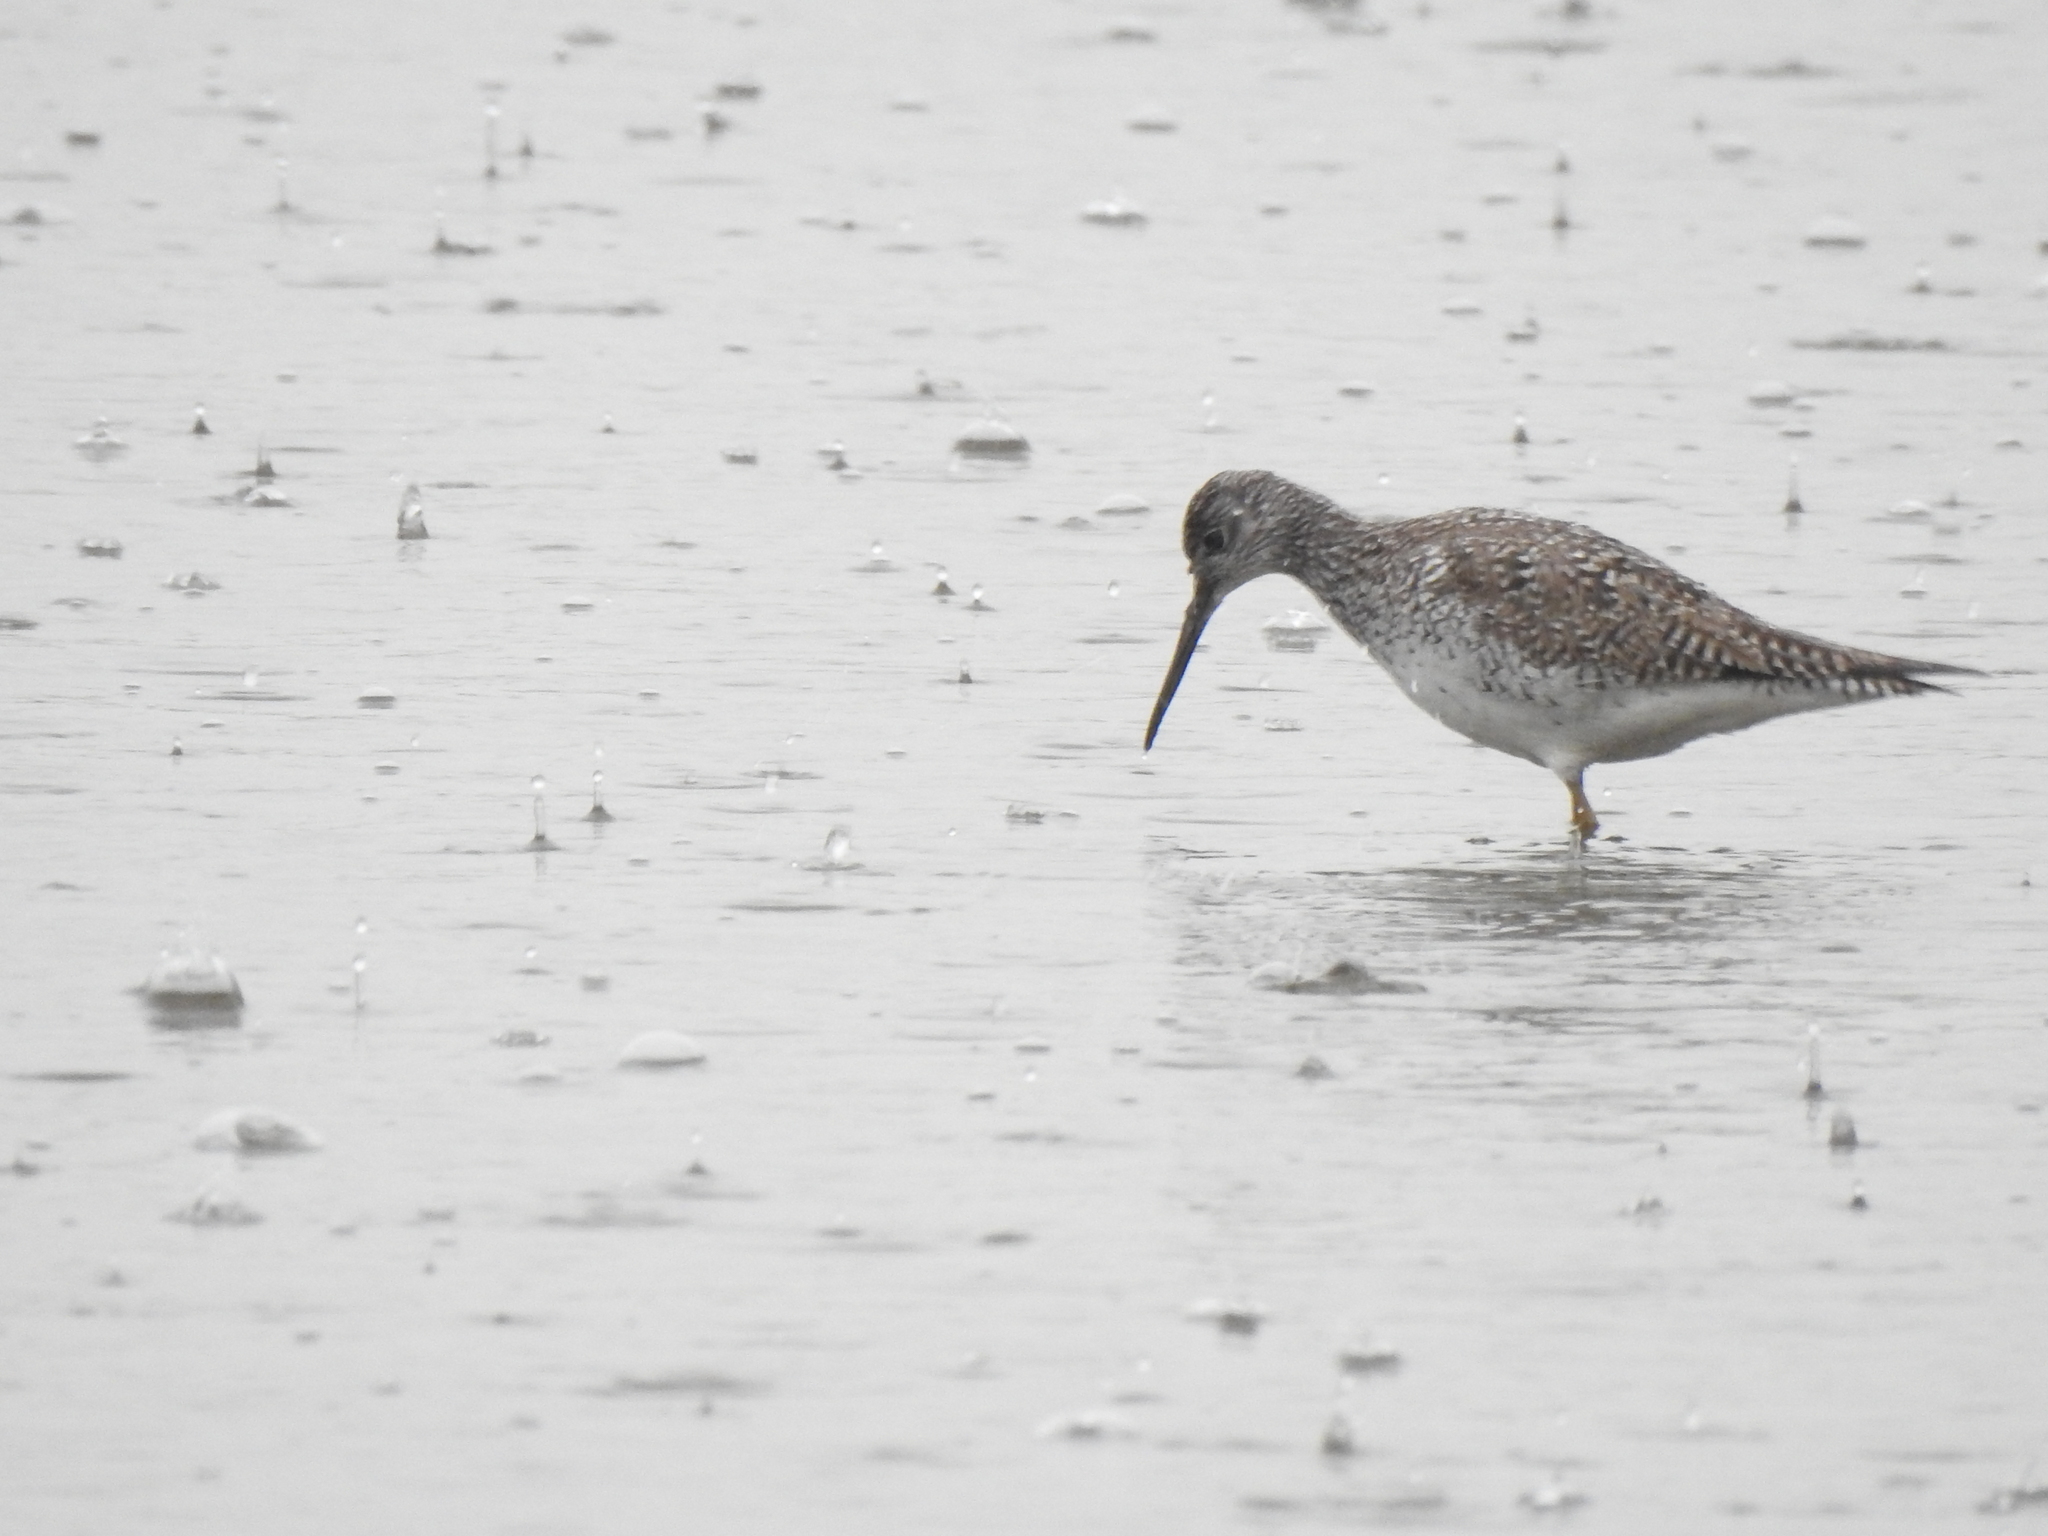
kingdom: Animalia
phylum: Chordata
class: Aves
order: Charadriiformes
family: Scolopacidae
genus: Tringa
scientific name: Tringa melanoleuca
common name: Greater yellowlegs
